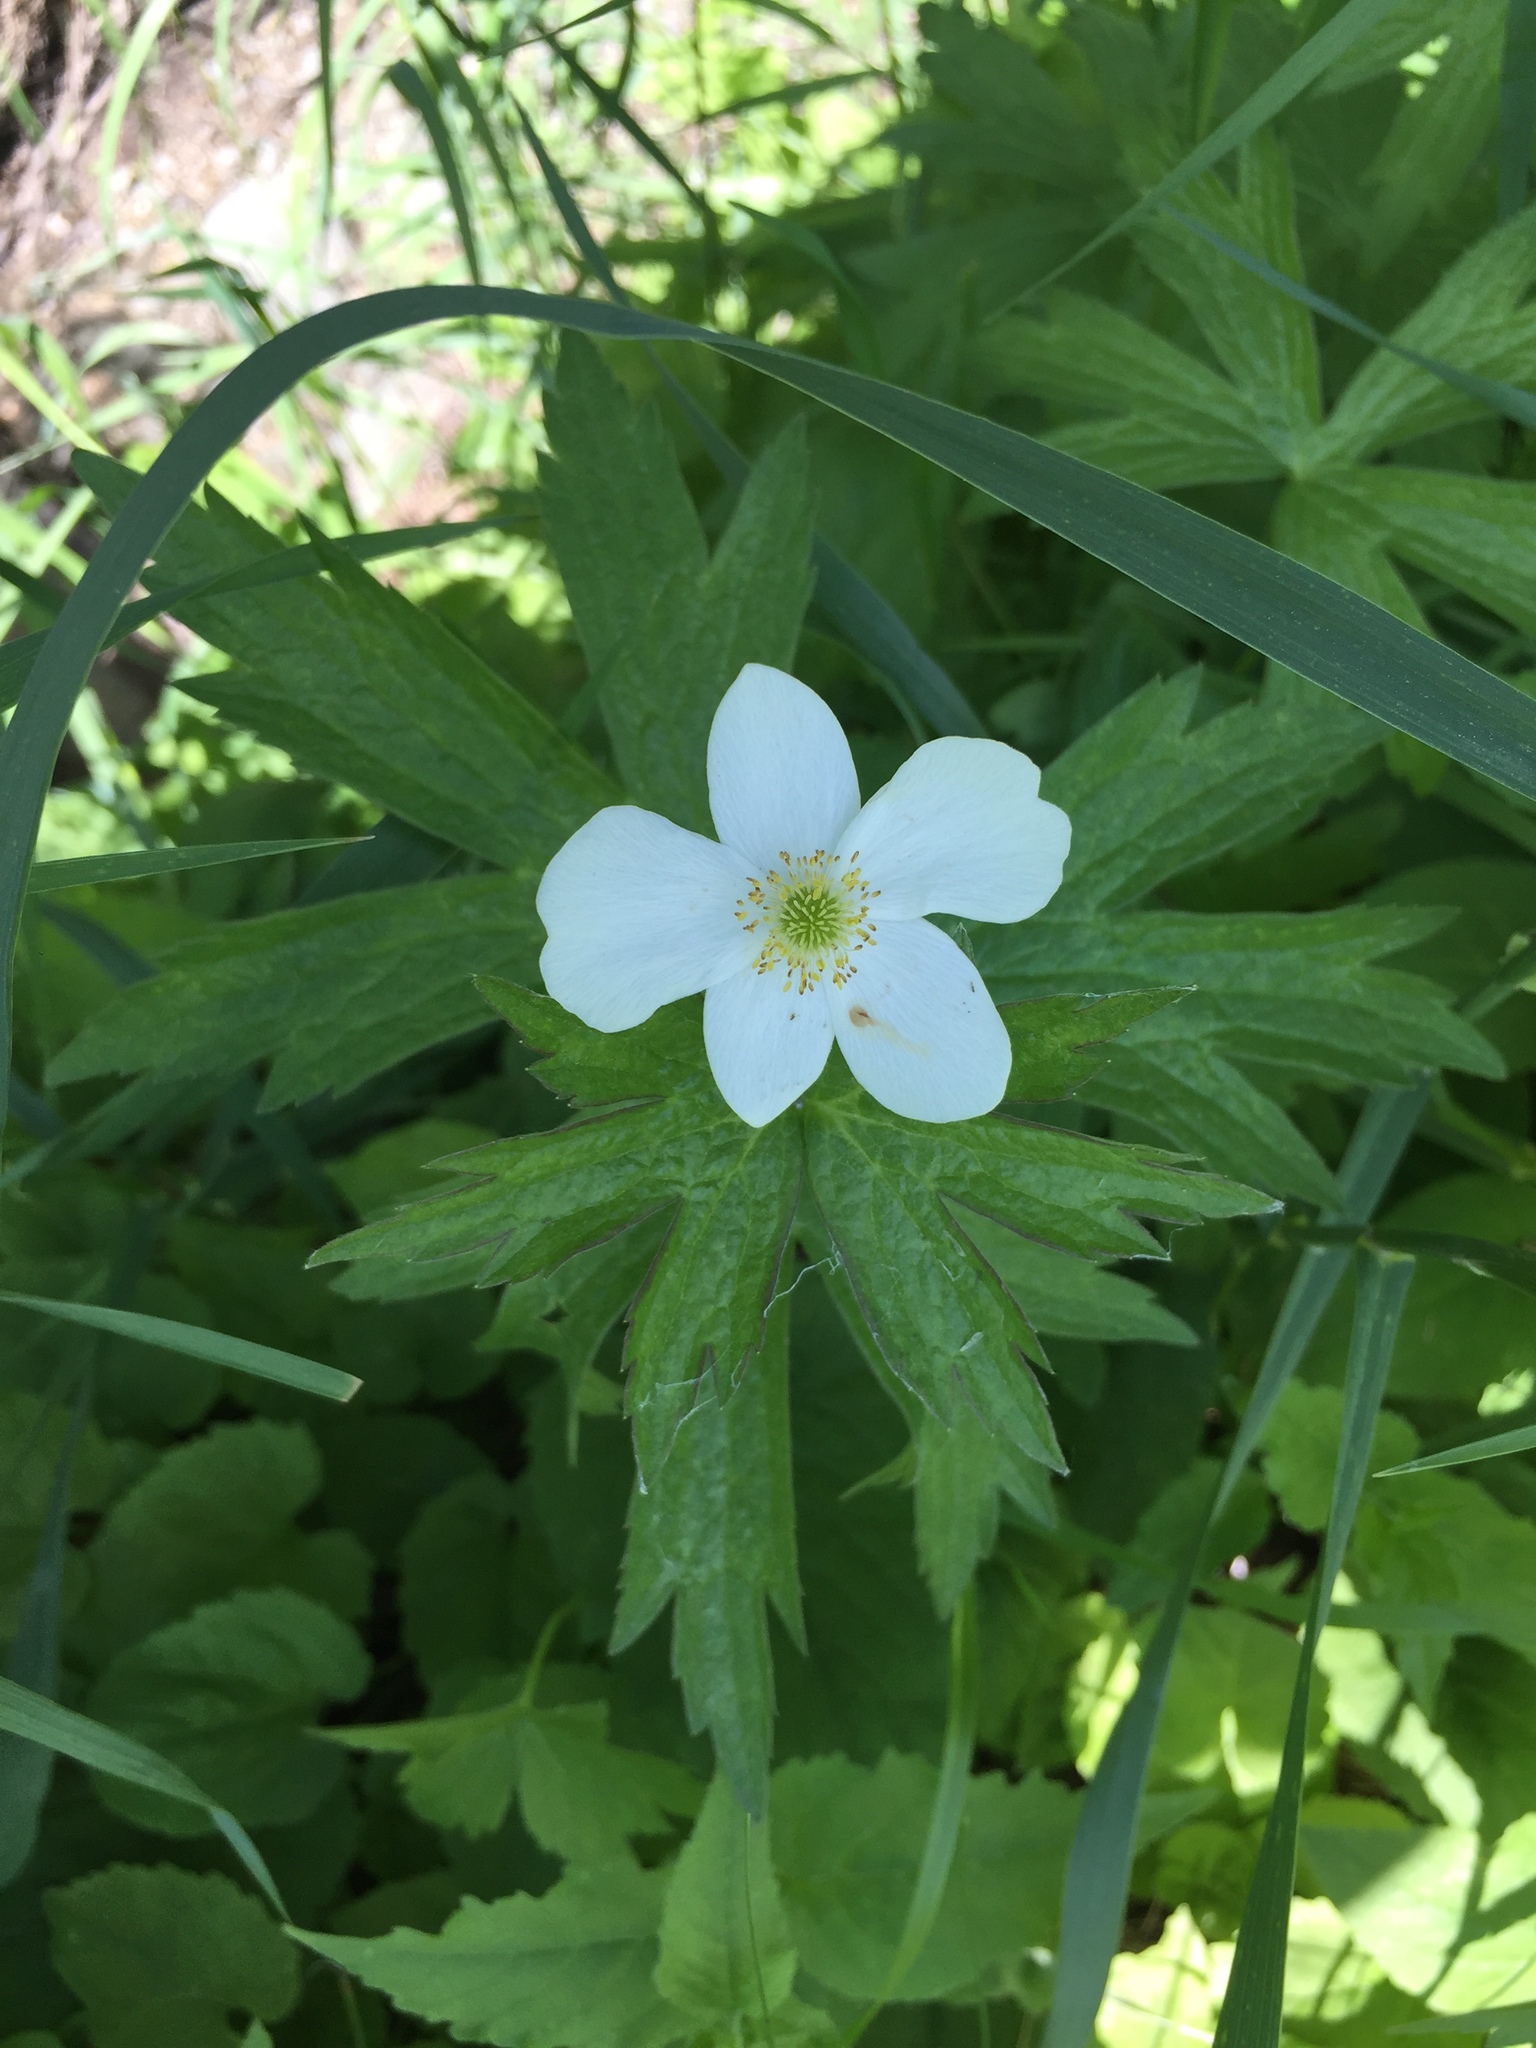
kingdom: Plantae
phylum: Tracheophyta
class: Magnoliopsida
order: Ranunculales
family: Ranunculaceae
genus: Anemonastrum
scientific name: Anemonastrum canadense
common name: Canada anemone
